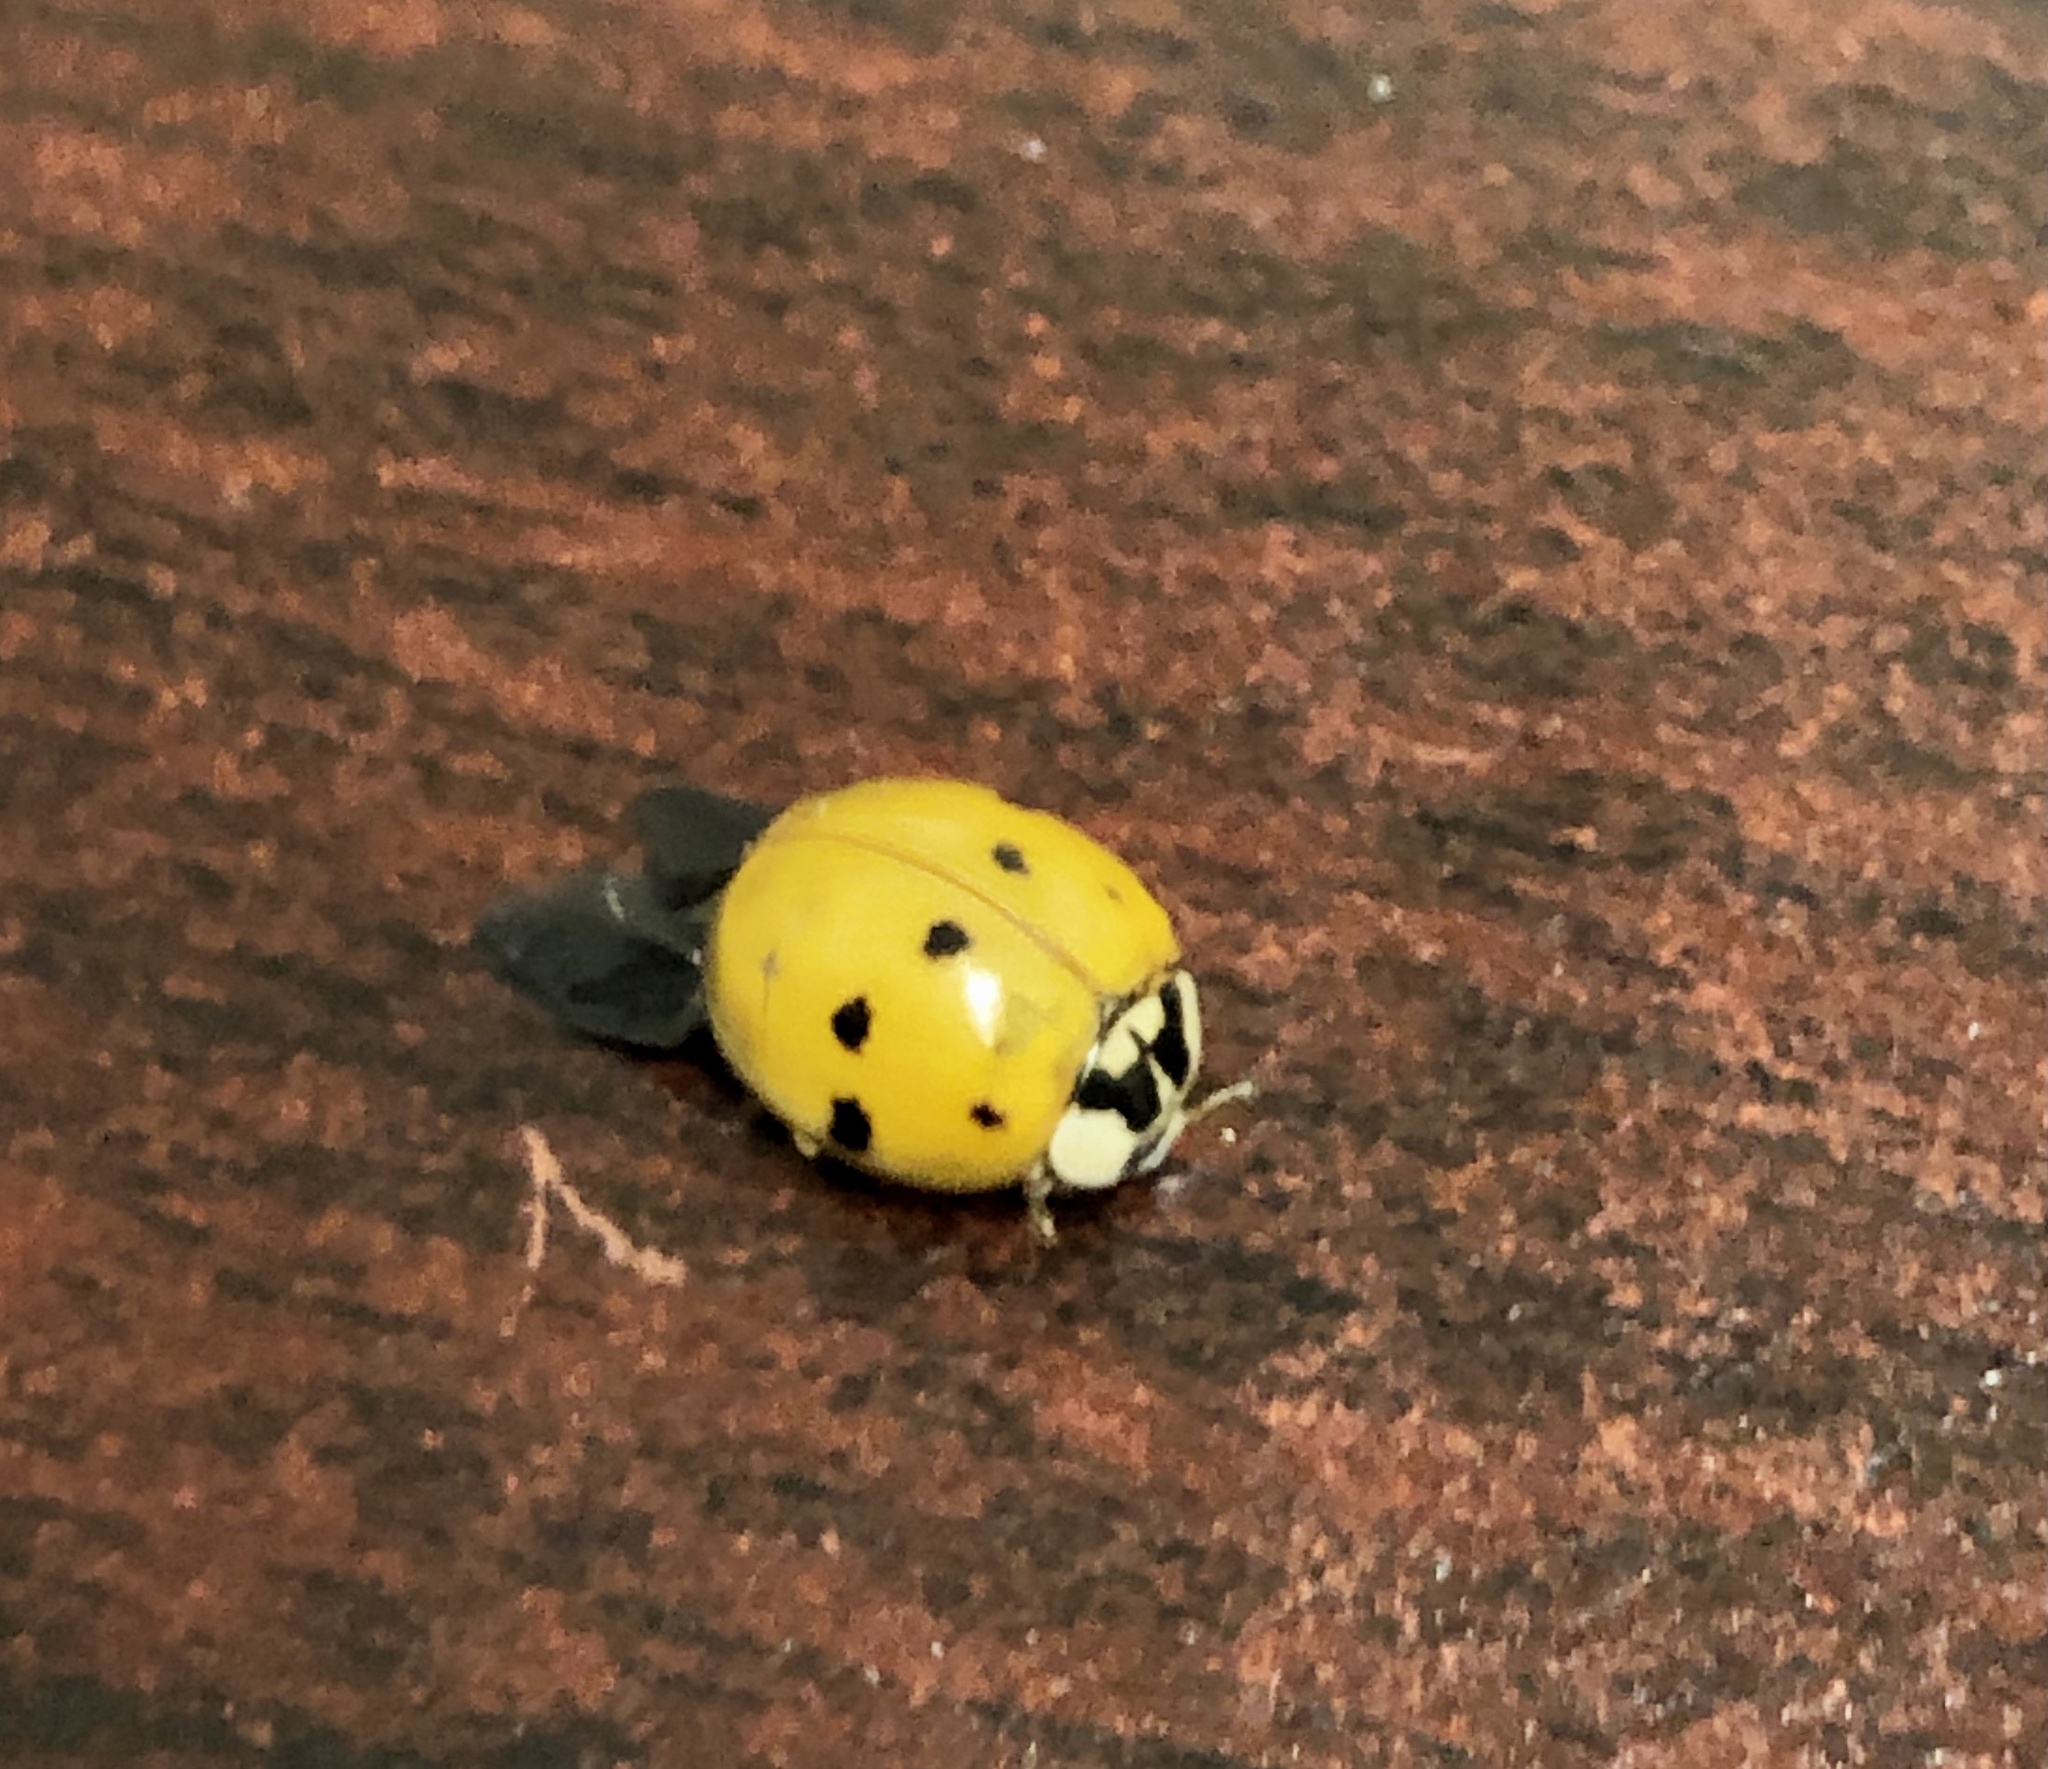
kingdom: Animalia
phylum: Arthropoda
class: Insecta
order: Coleoptera
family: Coccinellidae
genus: Harmonia
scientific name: Harmonia axyridis
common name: Harlequin ladybird
